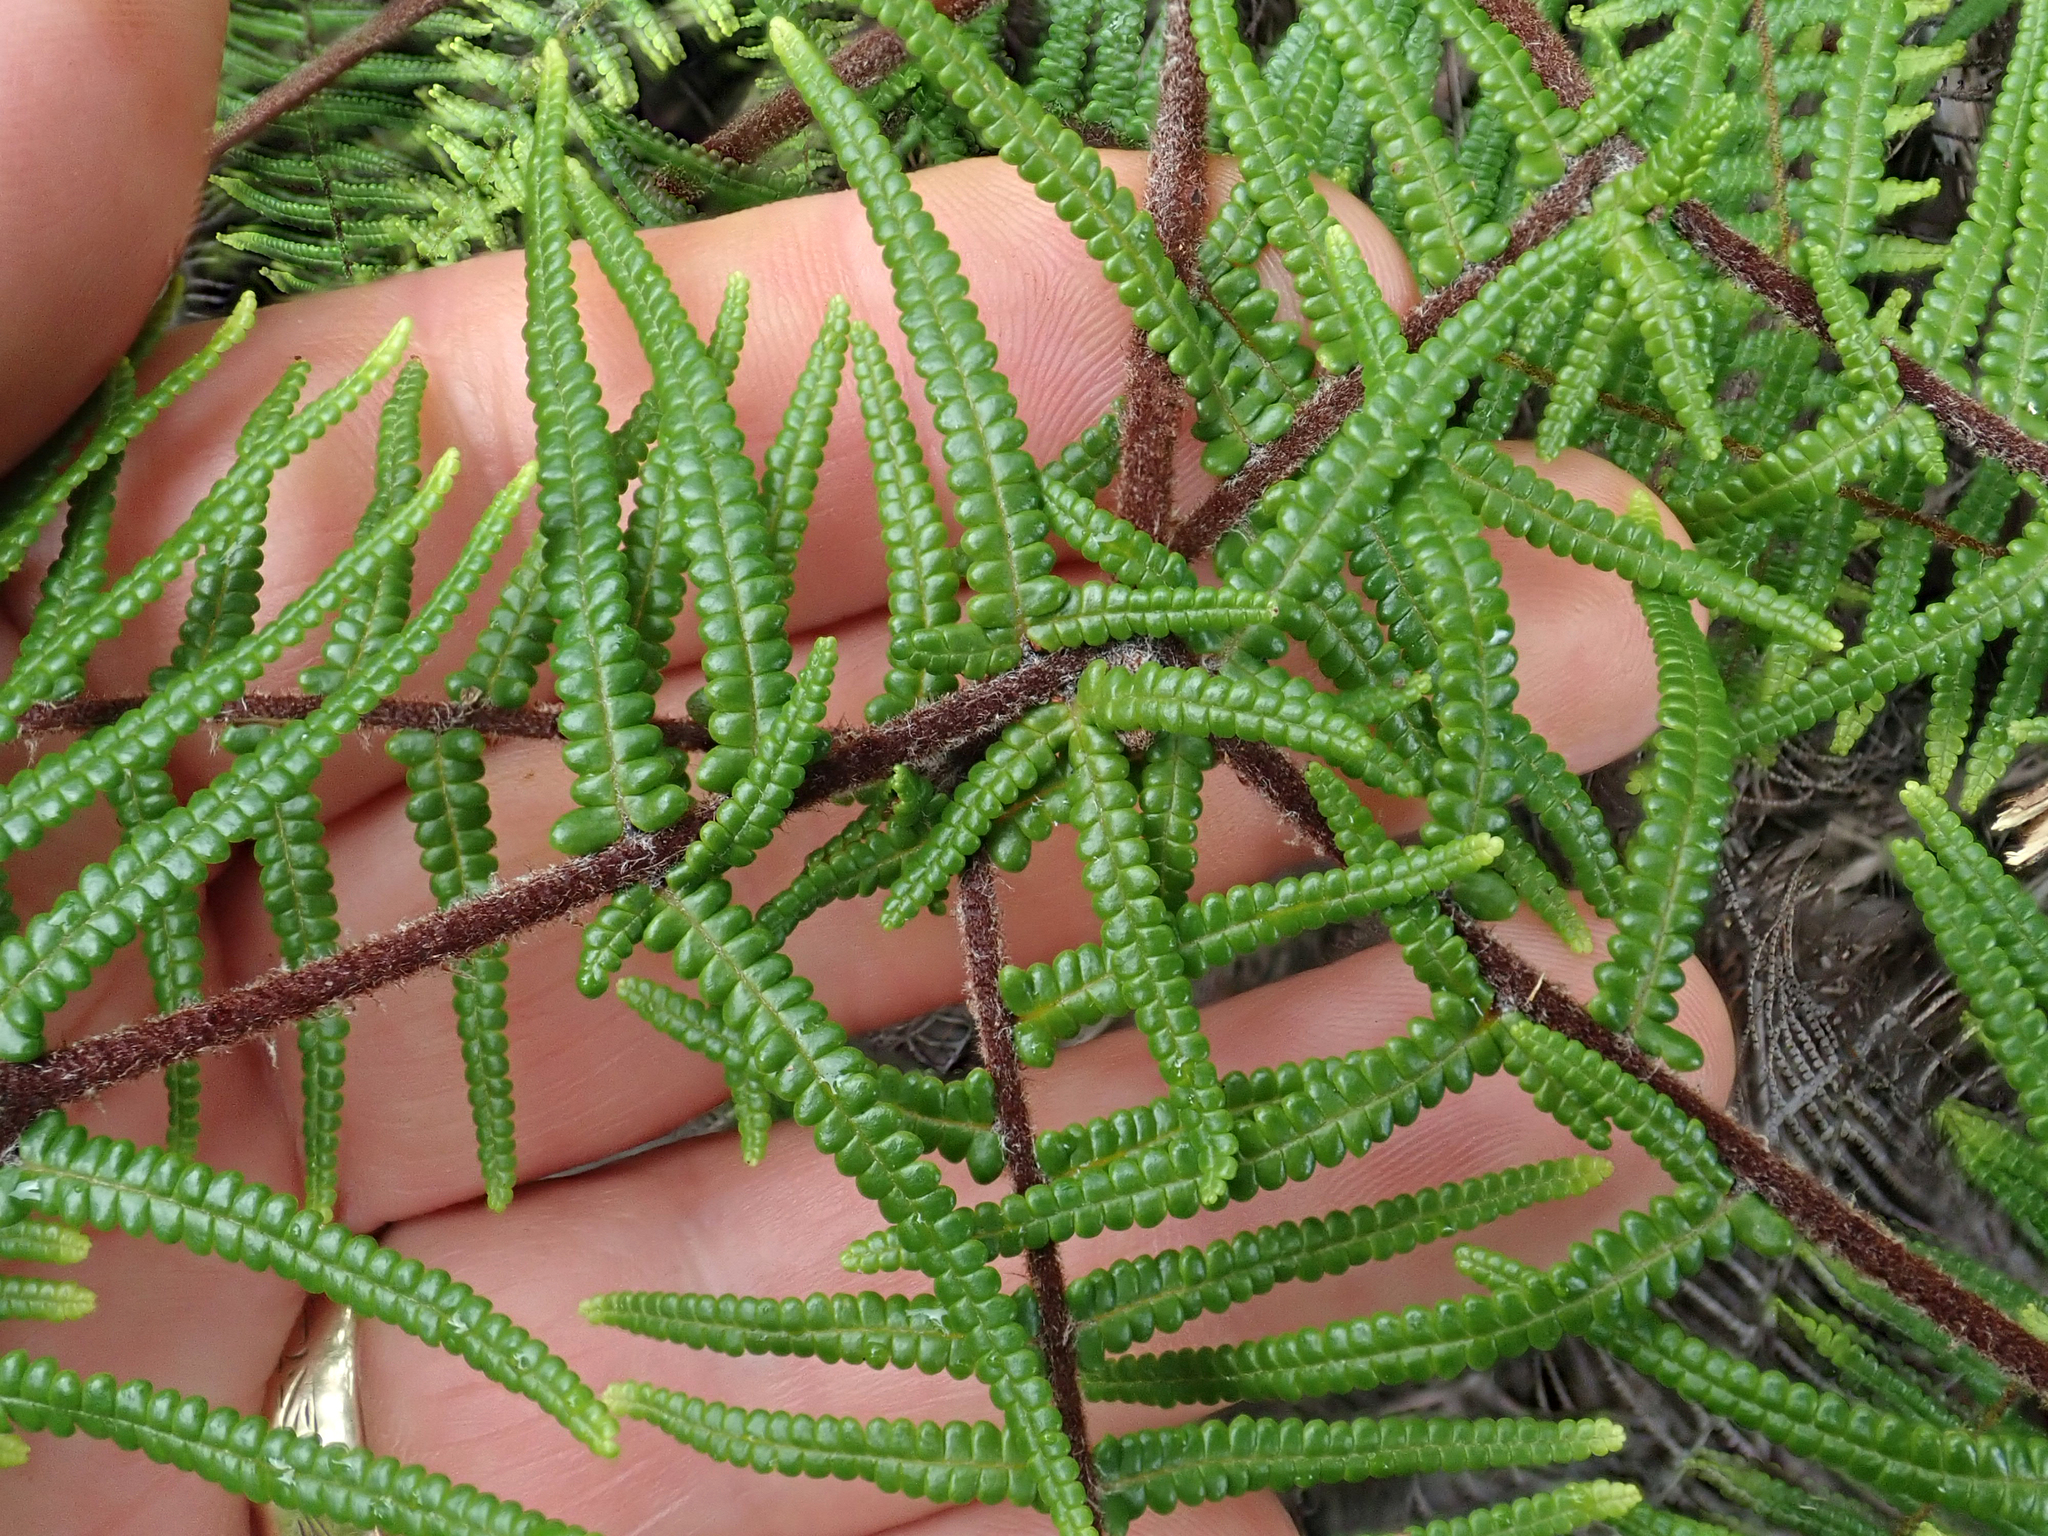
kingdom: Plantae
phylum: Tracheophyta
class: Polypodiopsida
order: Gleicheniales
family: Gleicheniaceae
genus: Gleichenia
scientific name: Gleichenia dicarpa
